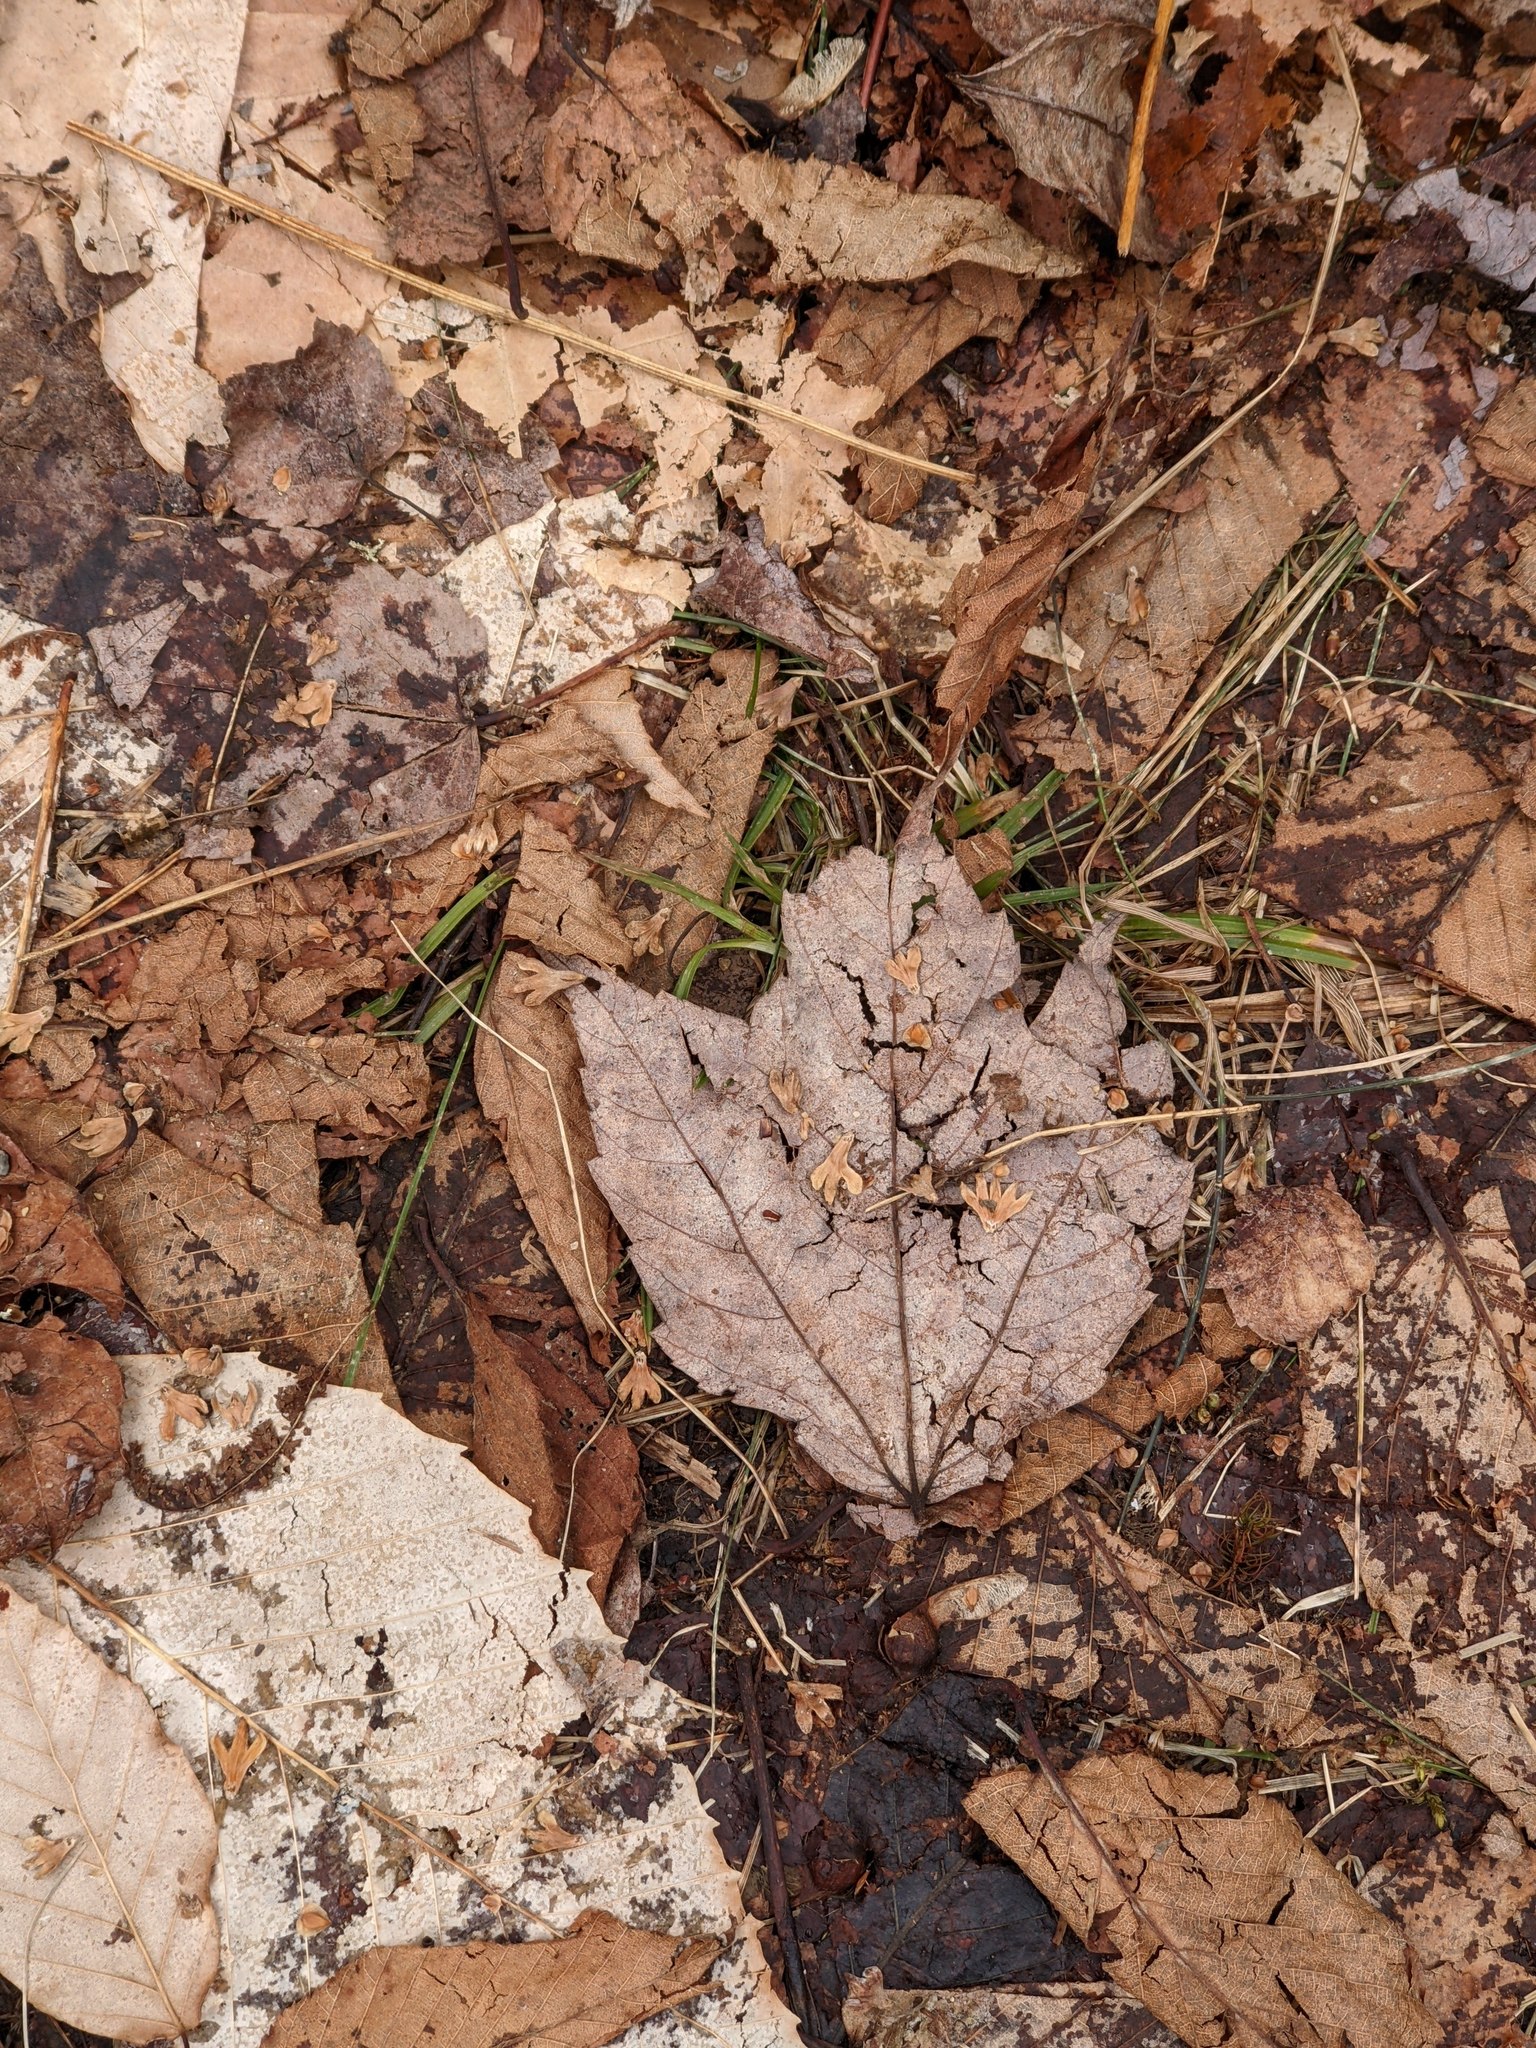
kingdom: Plantae
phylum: Tracheophyta
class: Magnoliopsida
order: Sapindales
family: Sapindaceae
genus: Acer
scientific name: Acer rubrum
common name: Red maple
